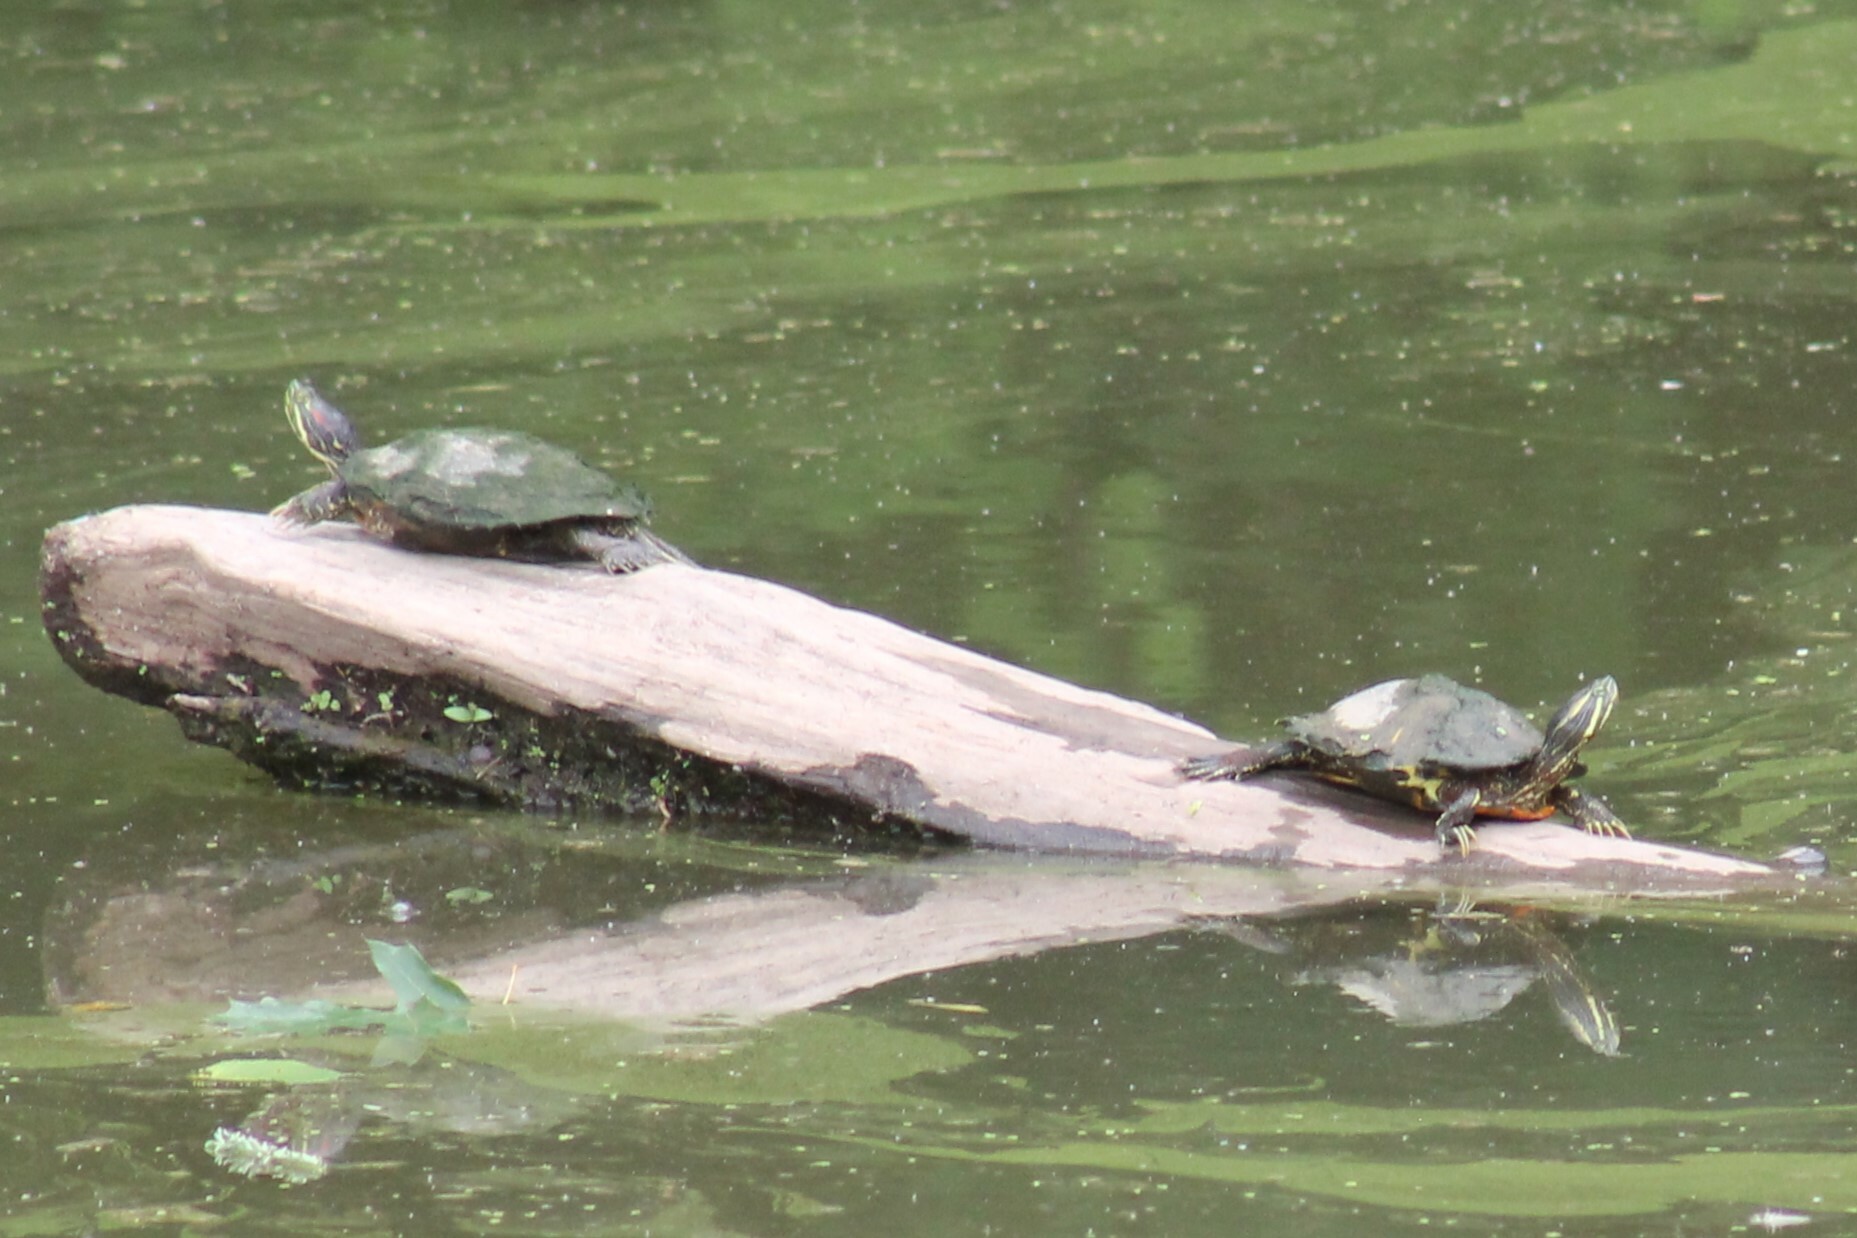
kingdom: Animalia
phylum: Chordata
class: Testudines
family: Emydidae
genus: Trachemys
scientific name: Trachemys scripta
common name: Slider
